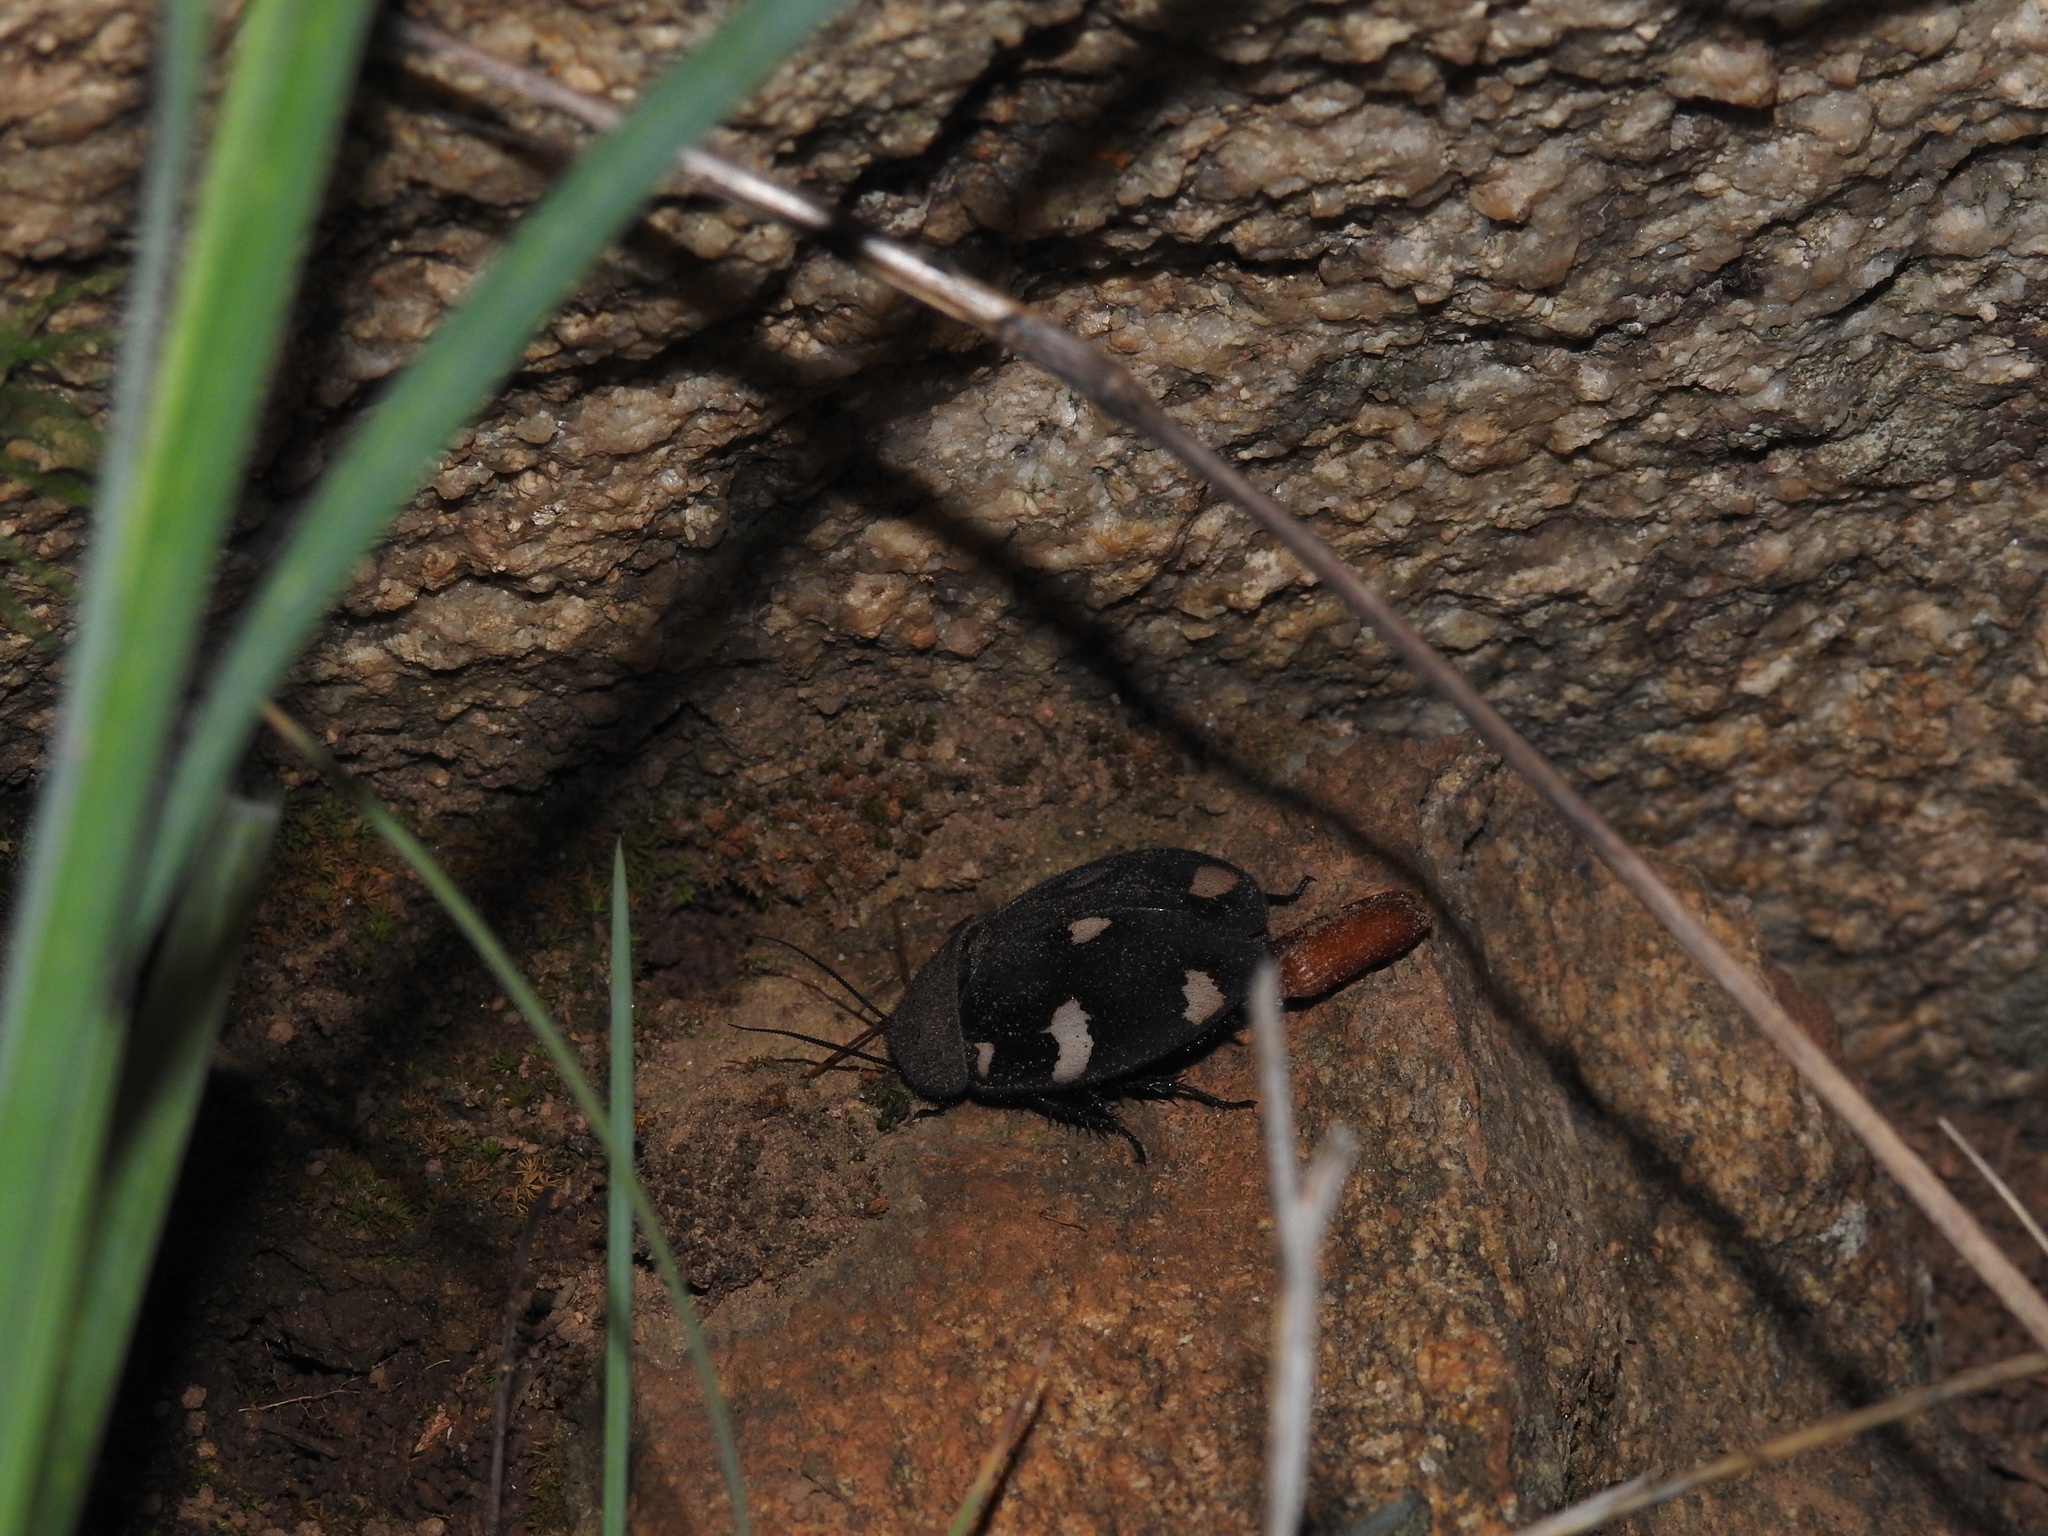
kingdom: Animalia
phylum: Arthropoda
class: Insecta
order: Blattodea
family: Corydiidae
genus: Therea
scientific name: Therea petiveriana
